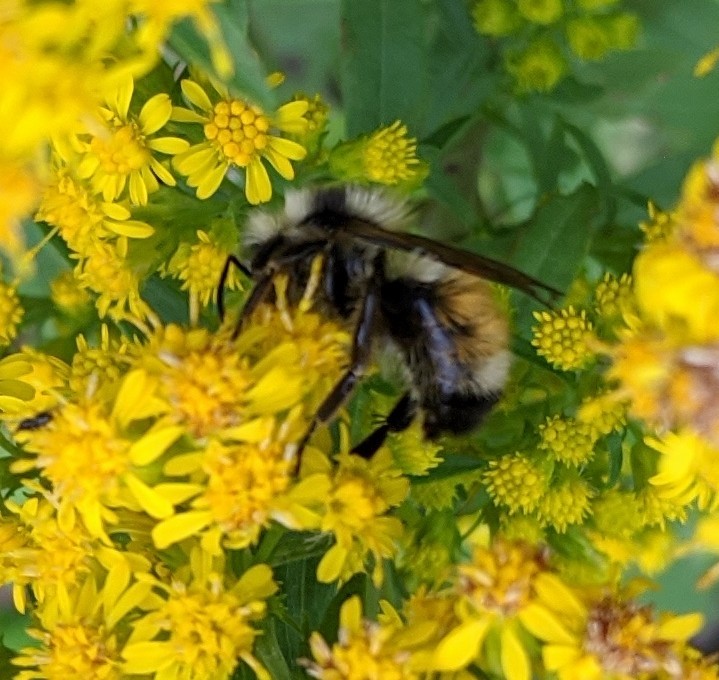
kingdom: Animalia
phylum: Arthropoda
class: Insecta
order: Hymenoptera
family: Apidae
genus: Bombus
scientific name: Bombus ternarius
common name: Tri-colored bumble bee
